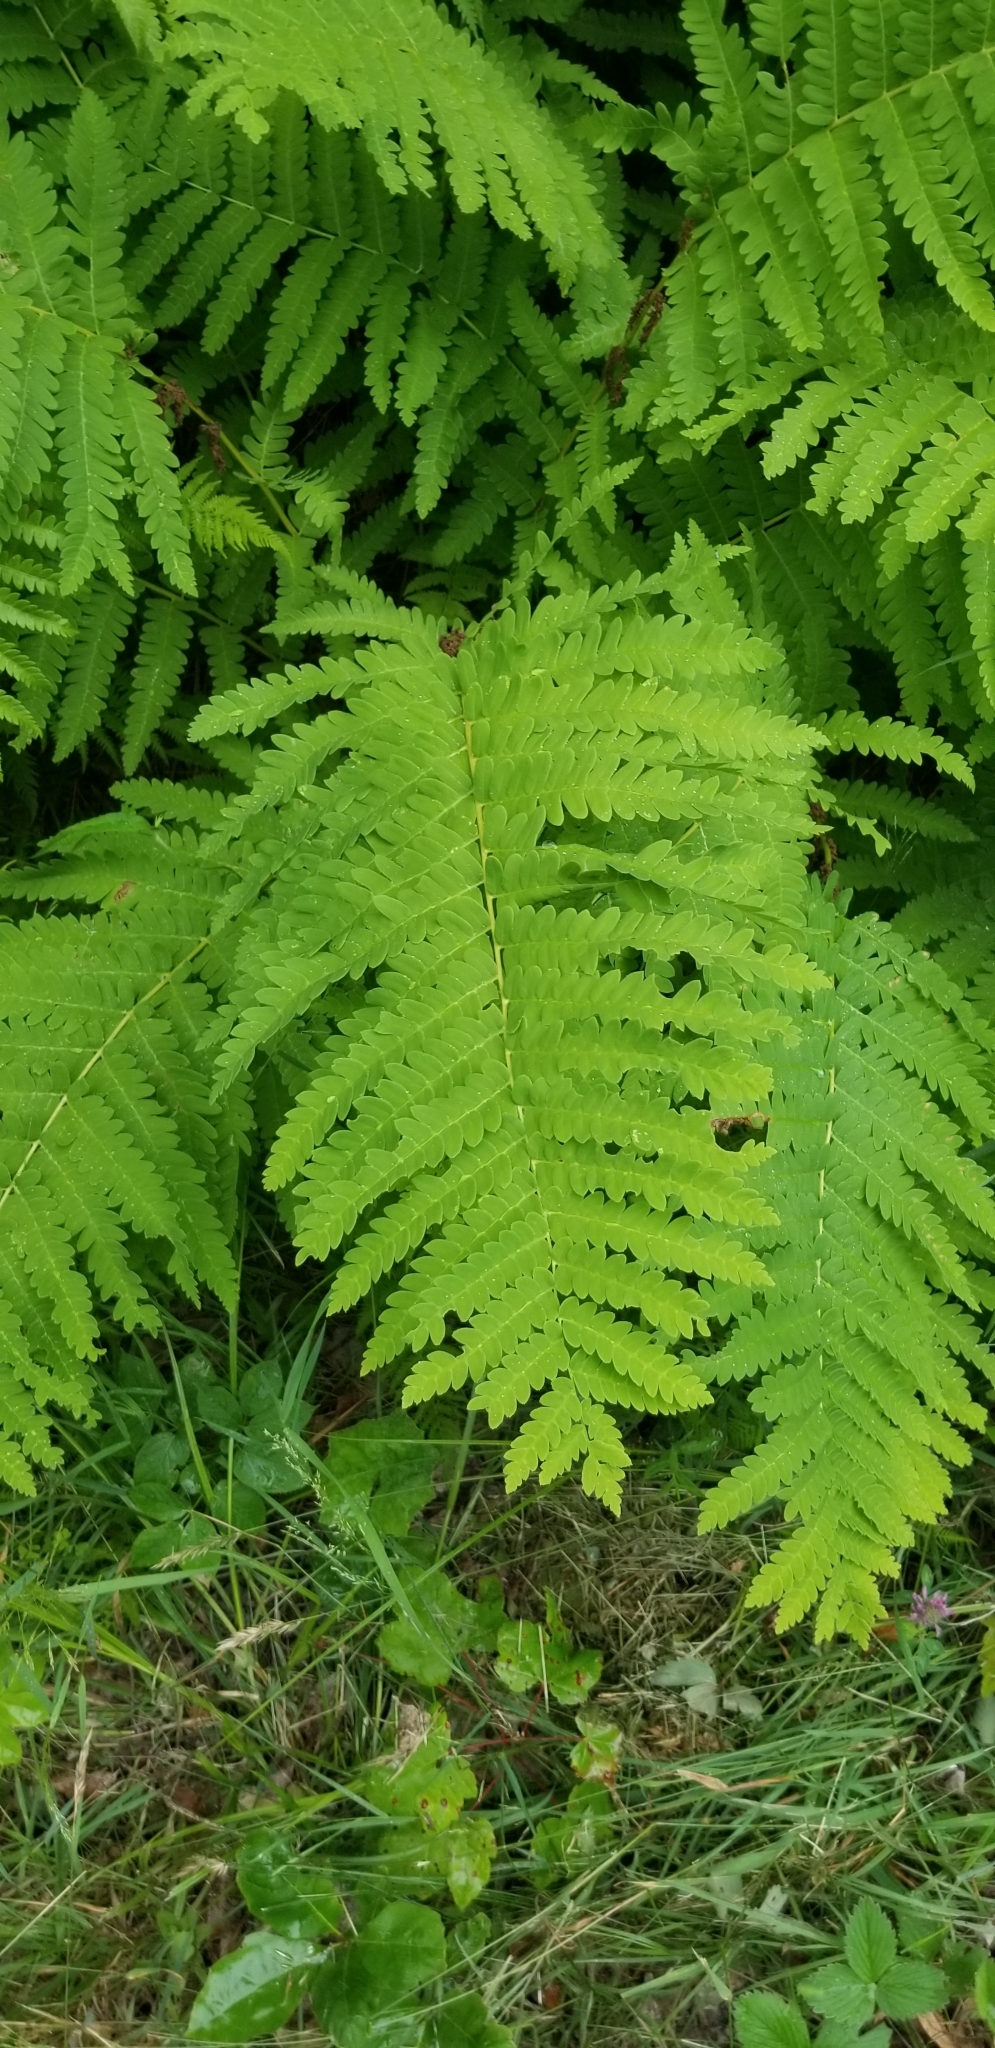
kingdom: Plantae
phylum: Tracheophyta
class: Polypodiopsida
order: Osmundales
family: Osmundaceae
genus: Claytosmunda
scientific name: Claytosmunda claytoniana
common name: Clayton's fern
